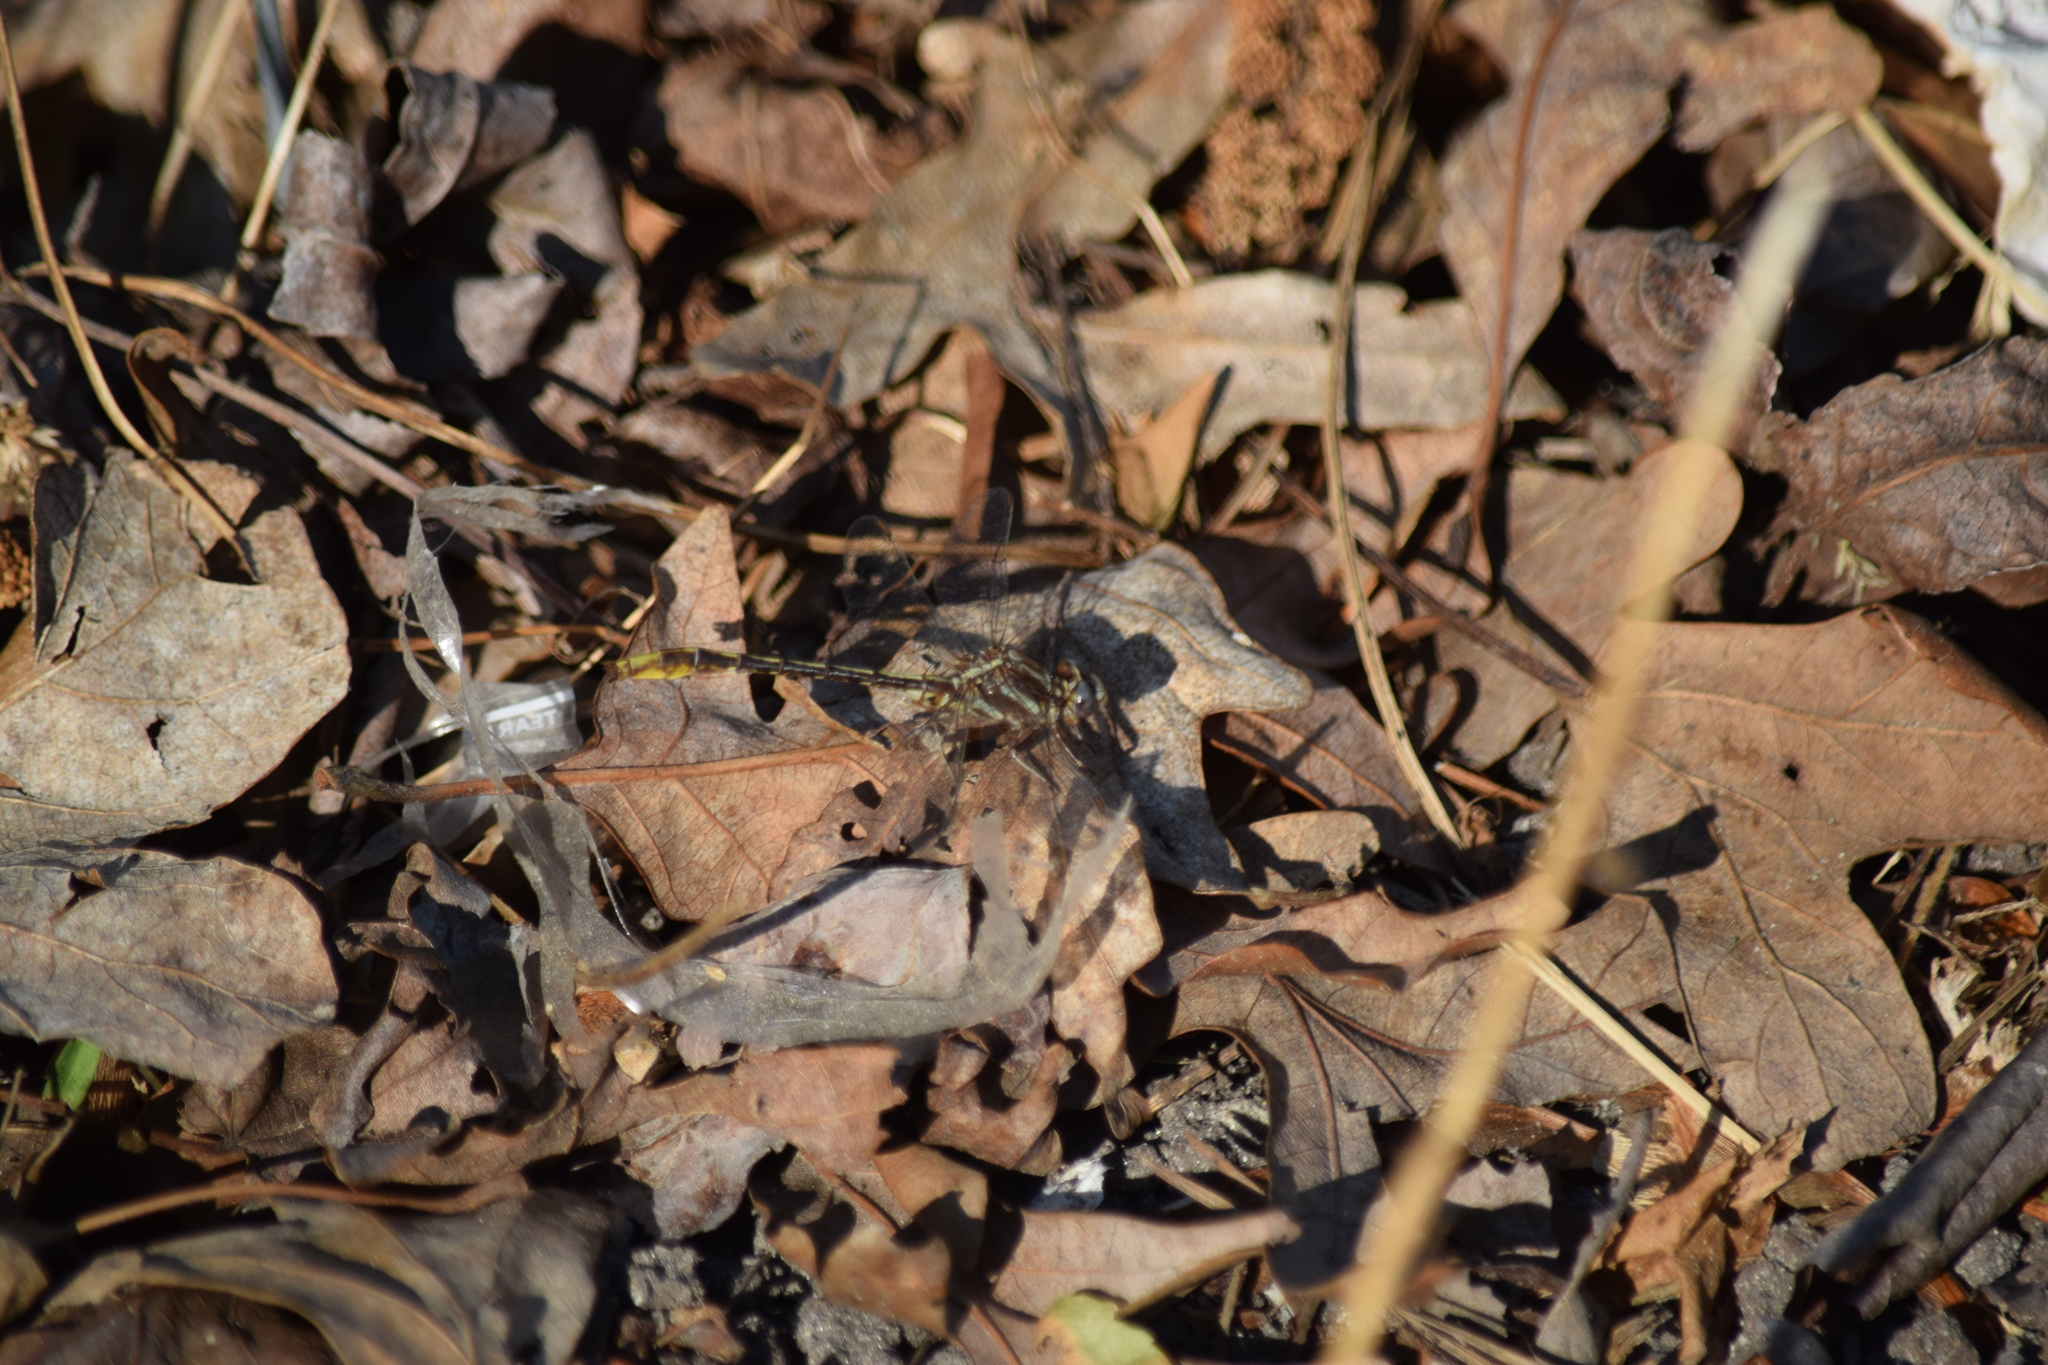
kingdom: Animalia
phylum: Arthropoda
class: Insecta
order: Odonata
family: Gomphidae
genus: Phanogomphus
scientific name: Phanogomphus exilis
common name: Lancet clubtail
